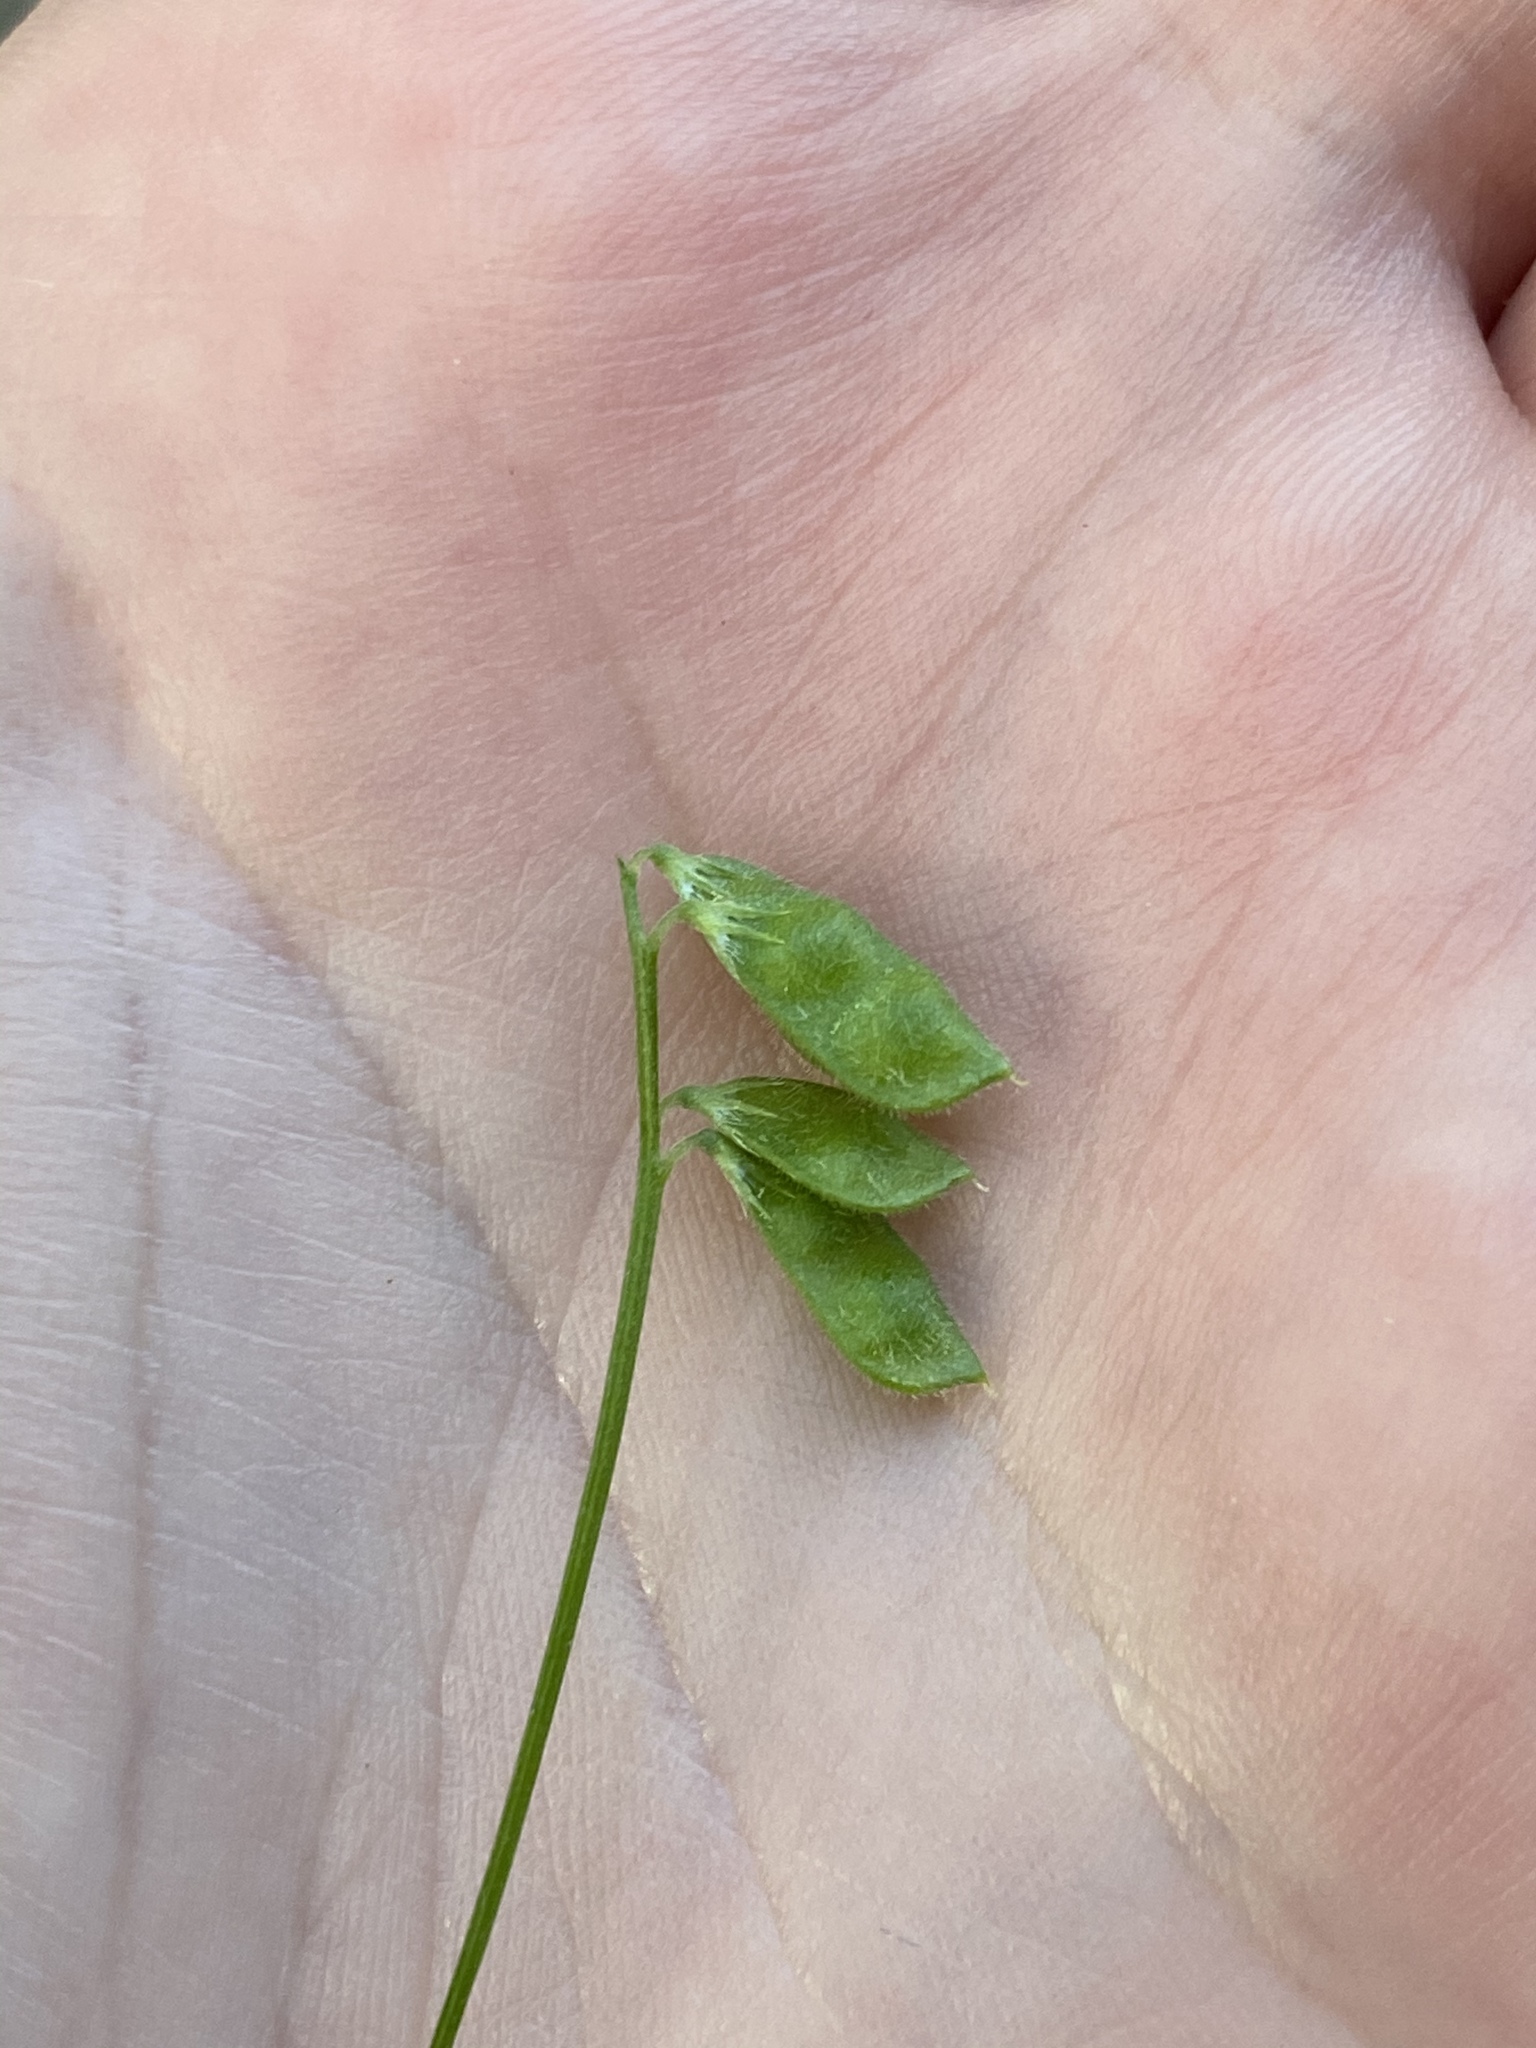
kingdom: Plantae
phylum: Tracheophyta
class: Magnoliopsida
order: Fabales
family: Fabaceae
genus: Vicia
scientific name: Vicia hirsuta
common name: Tiny vetch
